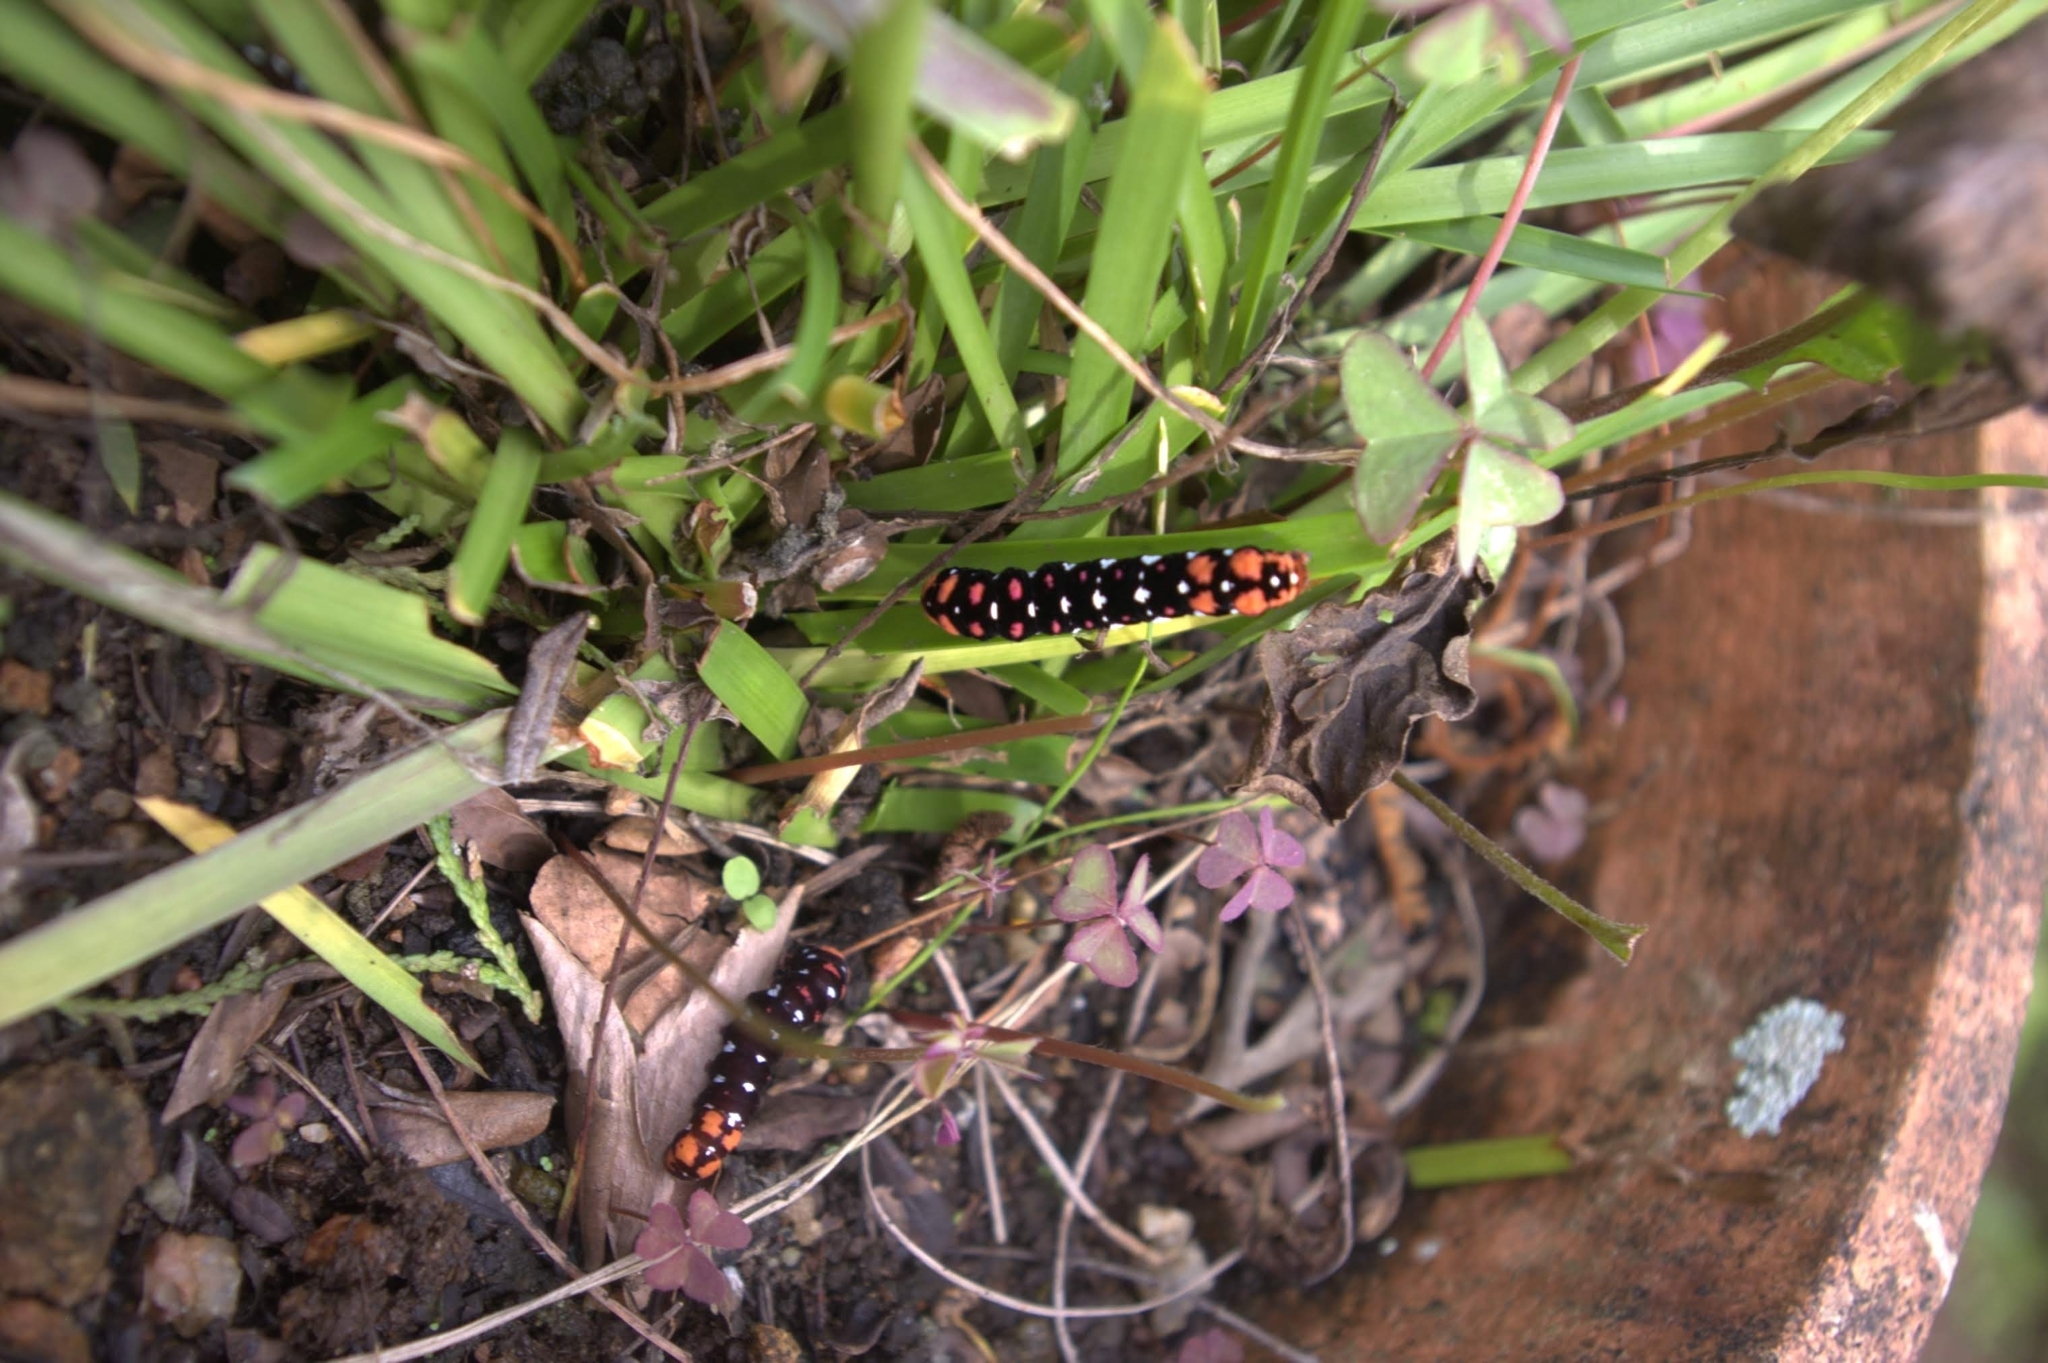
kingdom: Animalia
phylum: Arthropoda
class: Insecta
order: Lepidoptera
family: Noctuidae
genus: Polytela
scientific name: Polytela gloriosae
